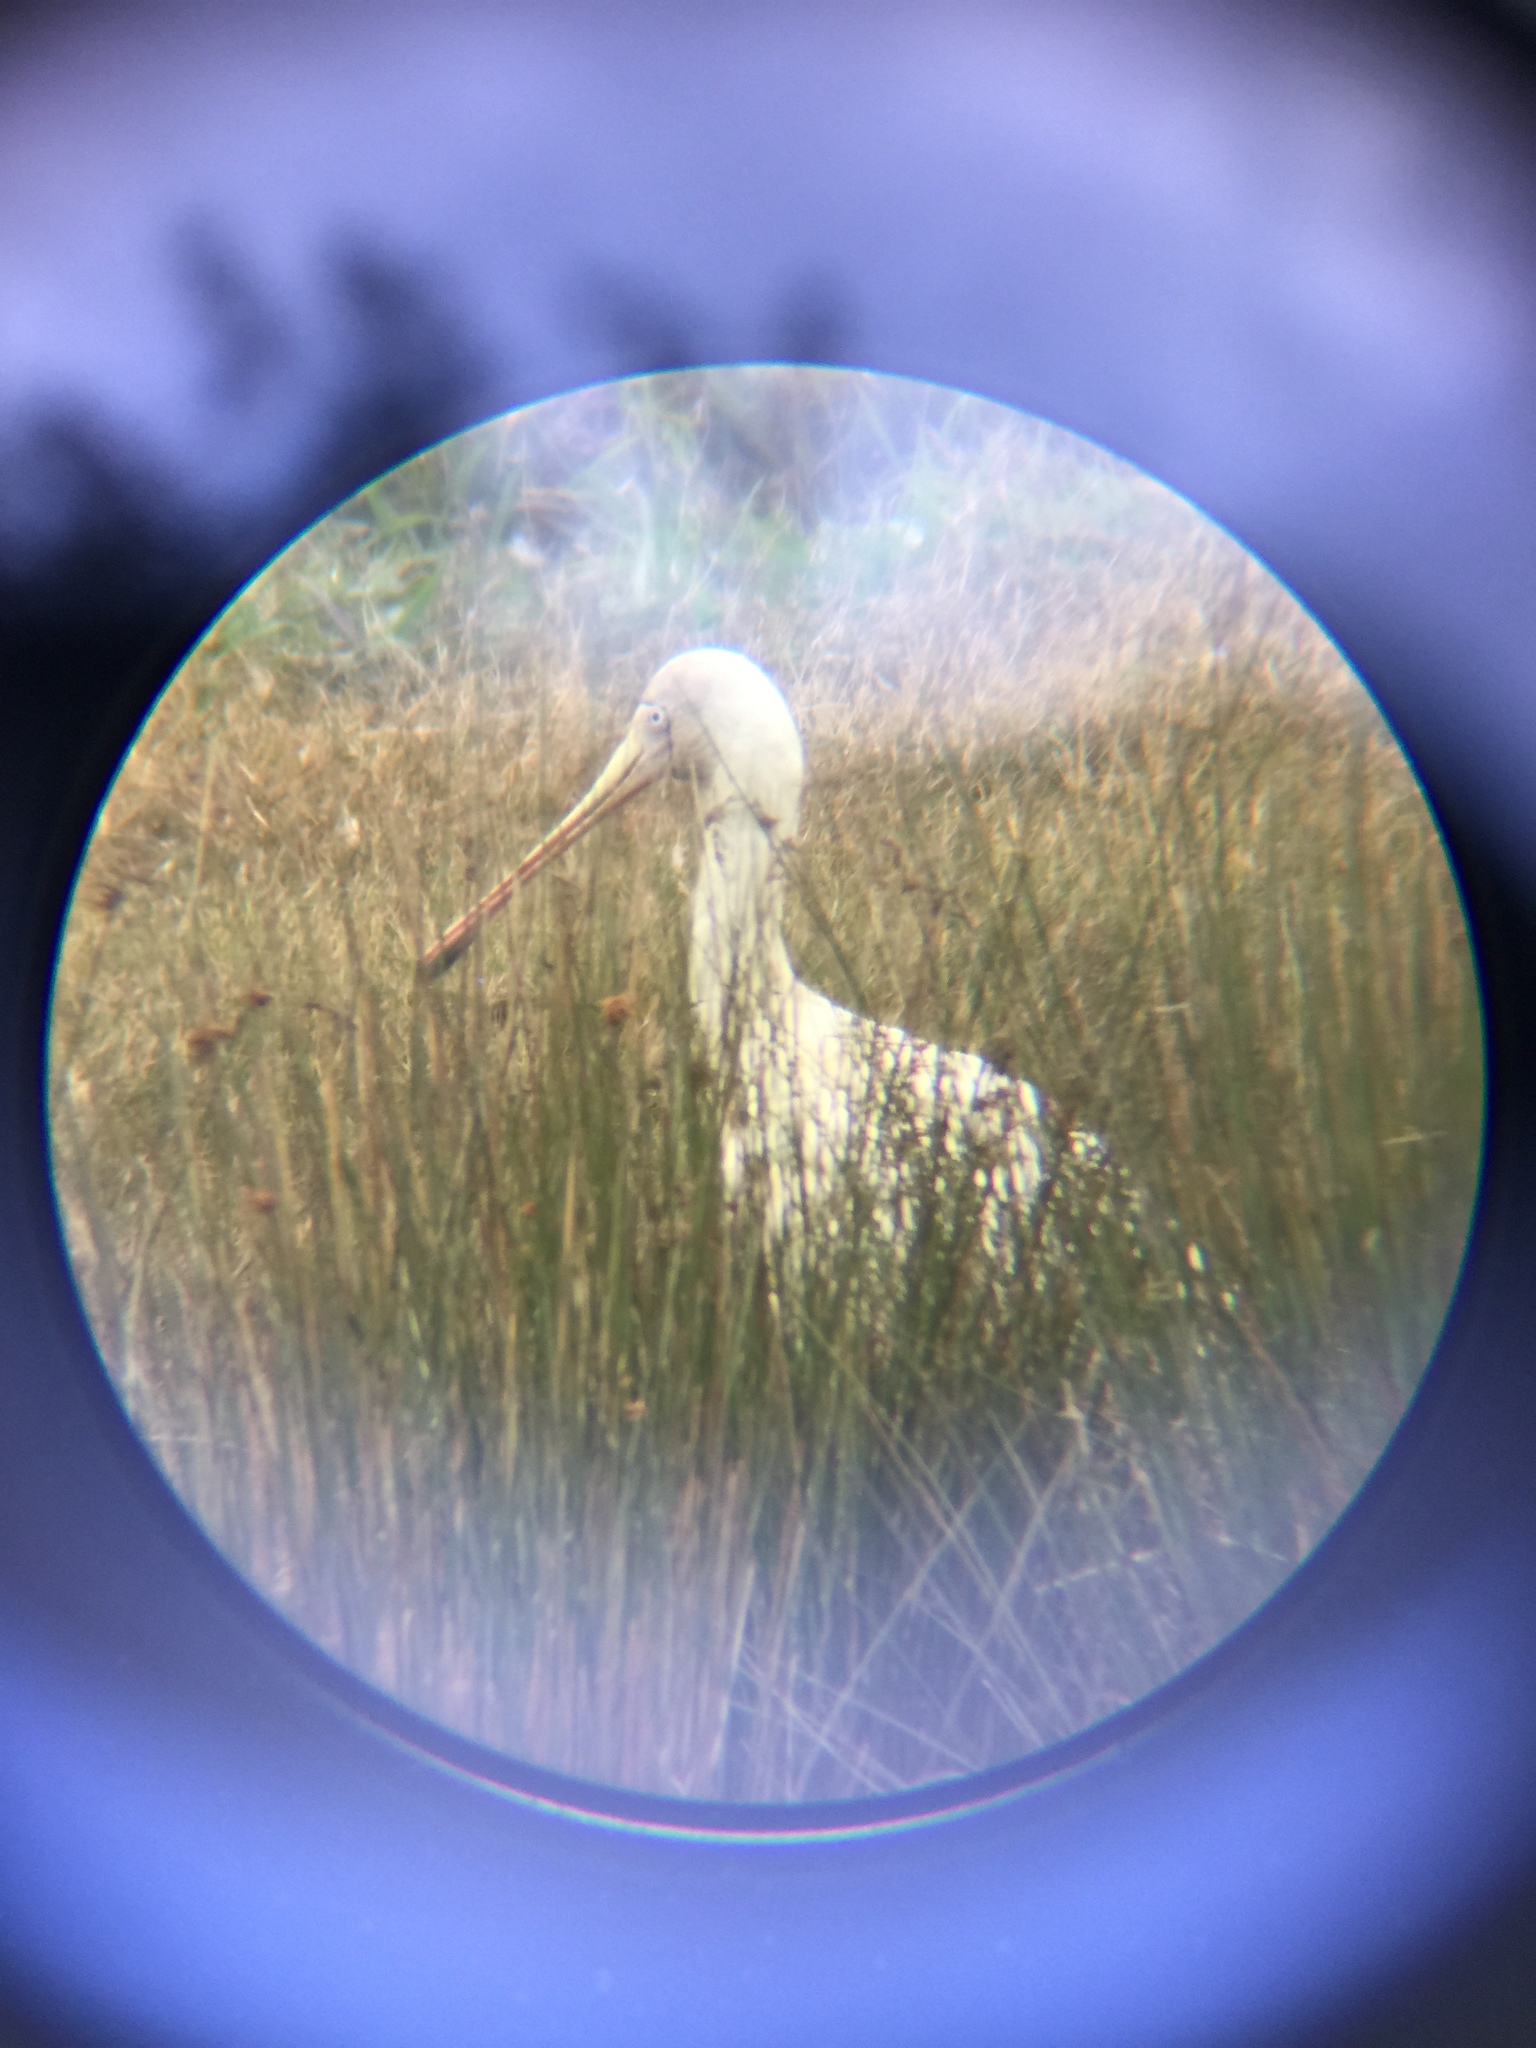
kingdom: Animalia
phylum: Chordata
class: Aves
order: Pelecaniformes
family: Threskiornithidae
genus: Platalea
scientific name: Platalea flavipes
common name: Yellow-billed spoonbill
